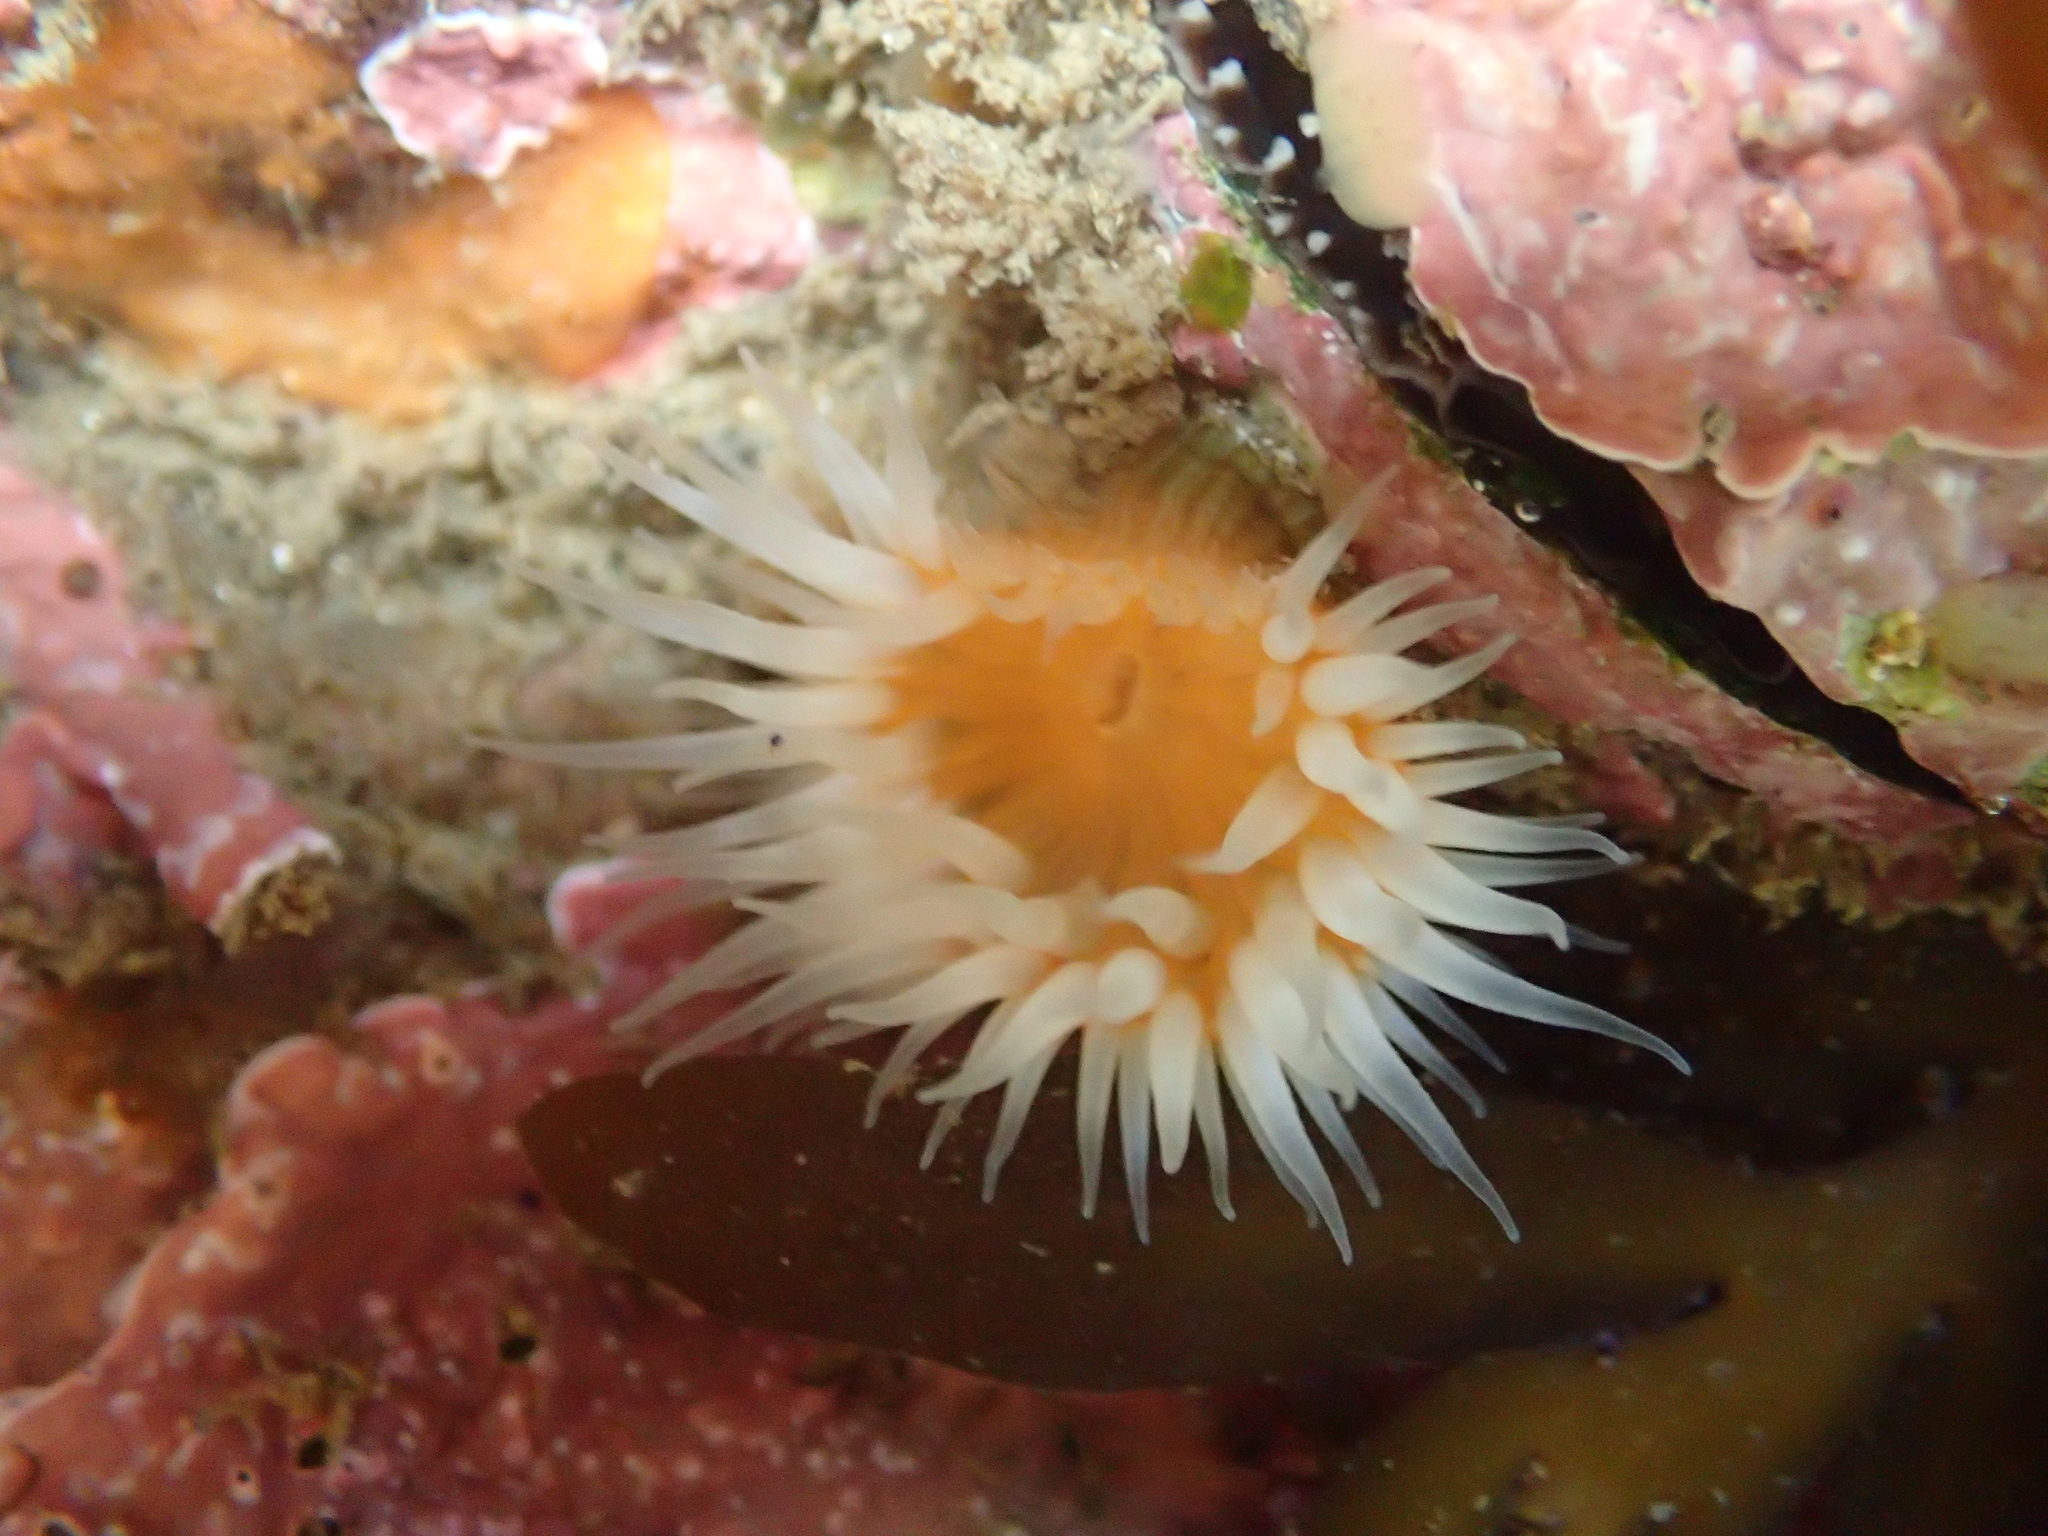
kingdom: Animalia
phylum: Cnidaria
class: Anthozoa
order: Actiniaria
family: Sagartiidae
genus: Anthothoe
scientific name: Anthothoe albocincta
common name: Orange striped anemone
